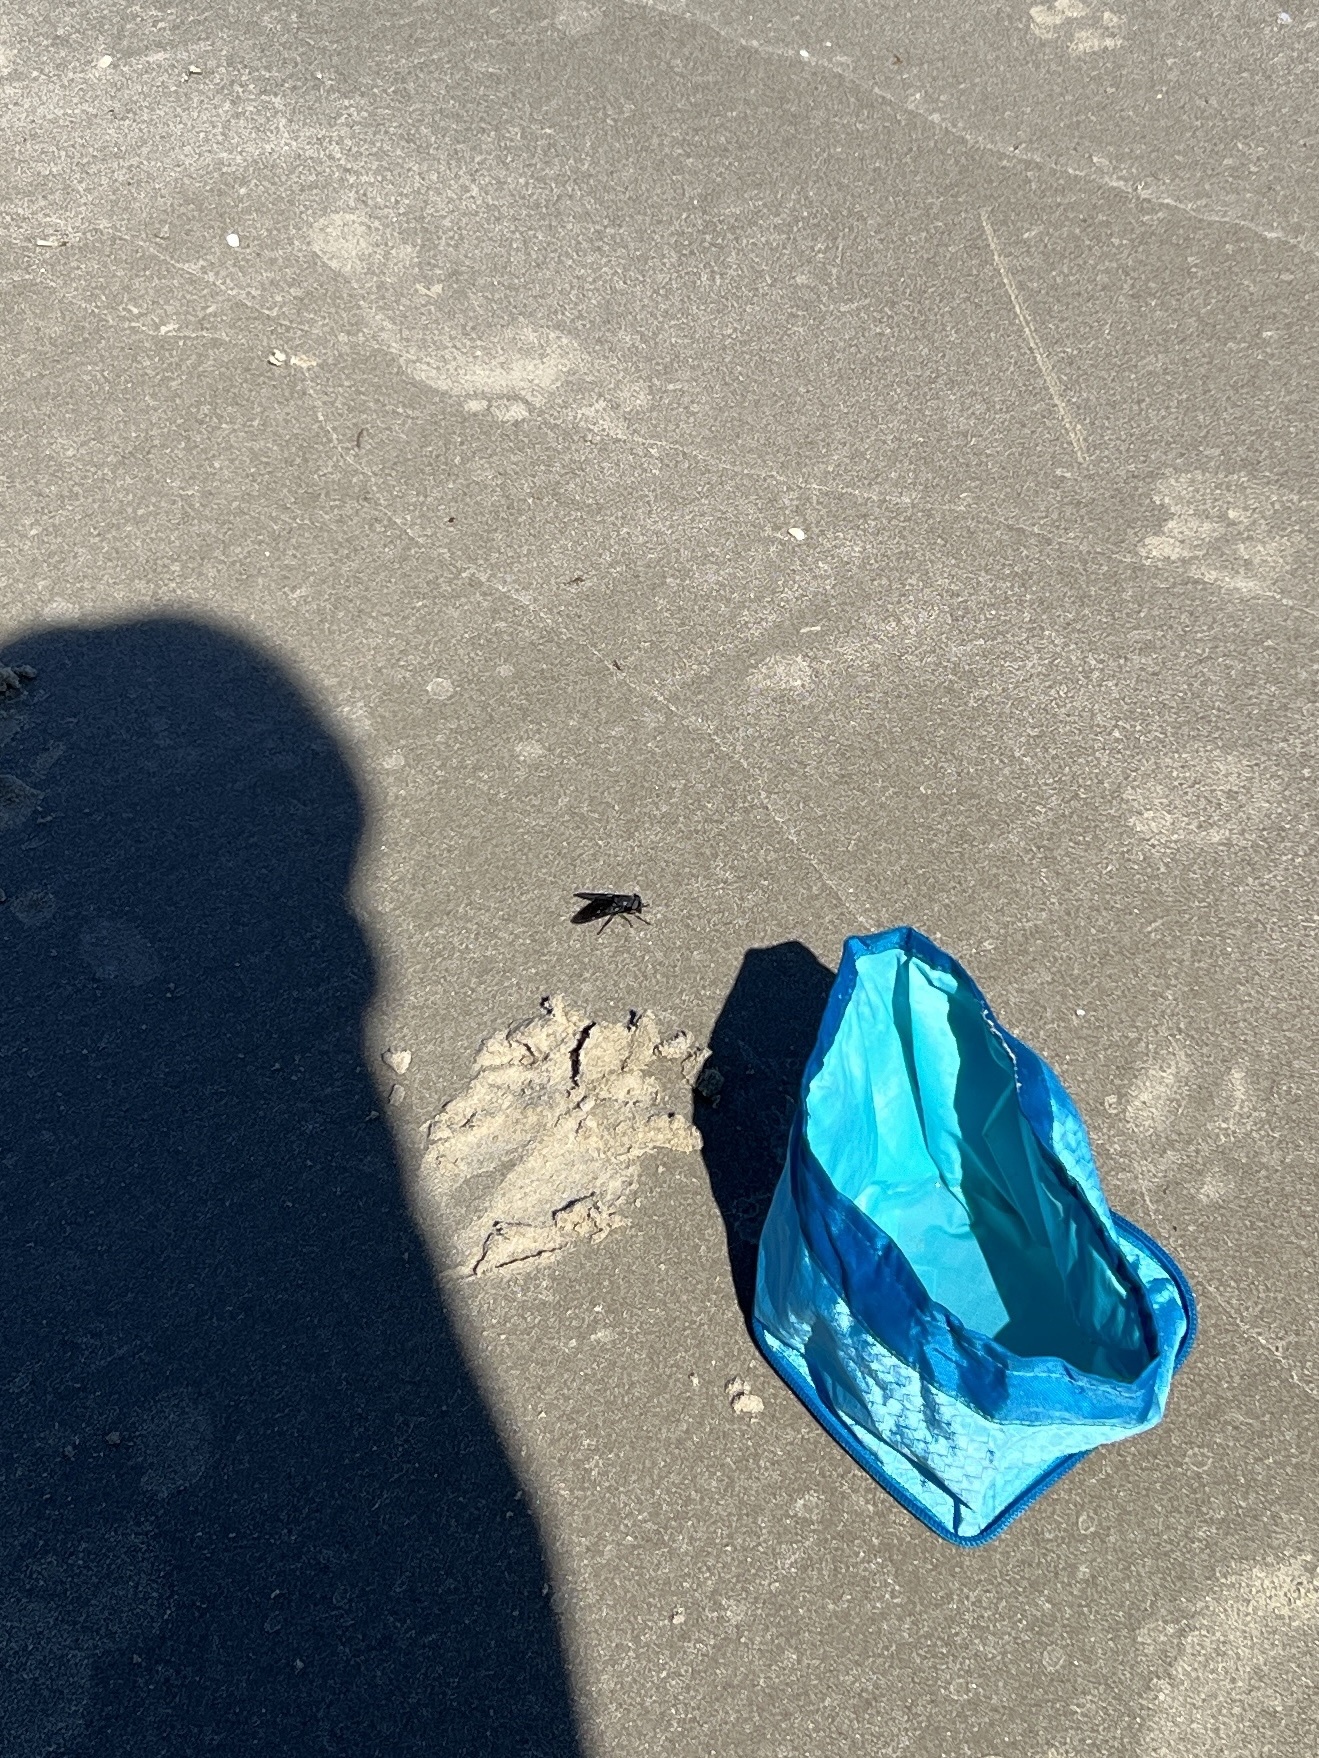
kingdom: Animalia
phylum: Arthropoda
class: Insecta
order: Diptera
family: Tabanidae
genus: Tabanus
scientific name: Tabanus atratus
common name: Black horse fly
